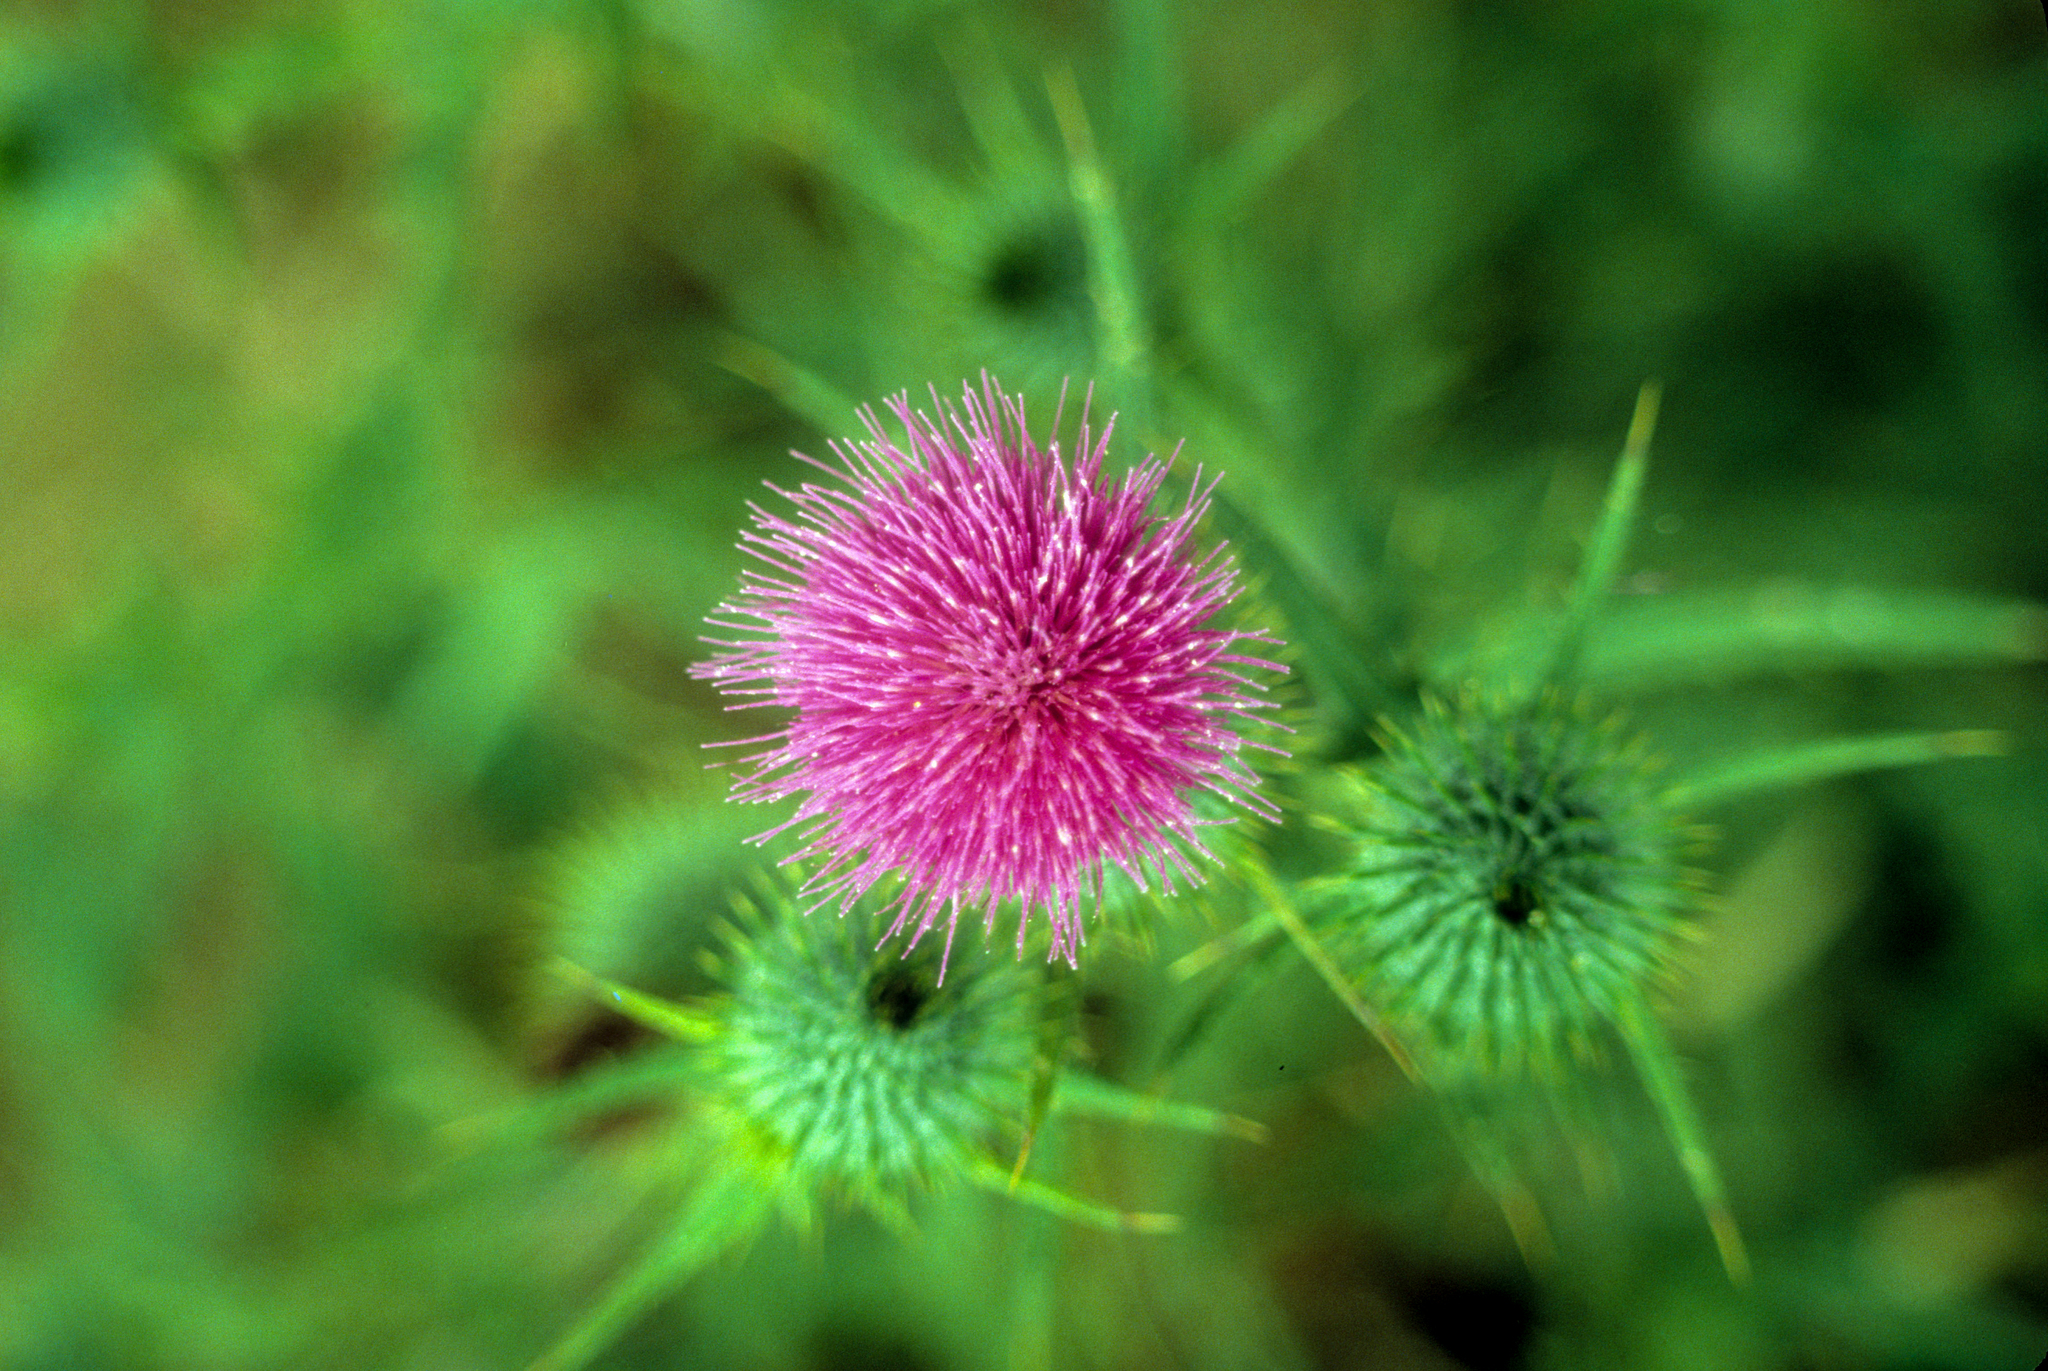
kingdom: Plantae
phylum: Tracheophyta
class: Magnoliopsida
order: Asterales
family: Asteraceae
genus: Cirsium
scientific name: Cirsium vulgare
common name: Bull thistle
